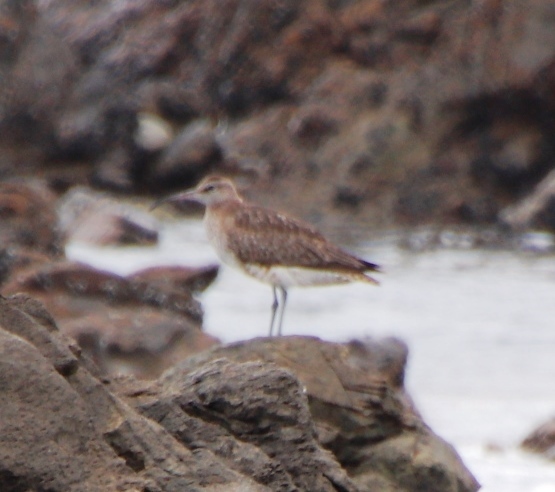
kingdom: Animalia
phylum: Chordata
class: Aves
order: Charadriiformes
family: Scolopacidae
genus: Numenius
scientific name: Numenius phaeopus
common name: Whimbrel
